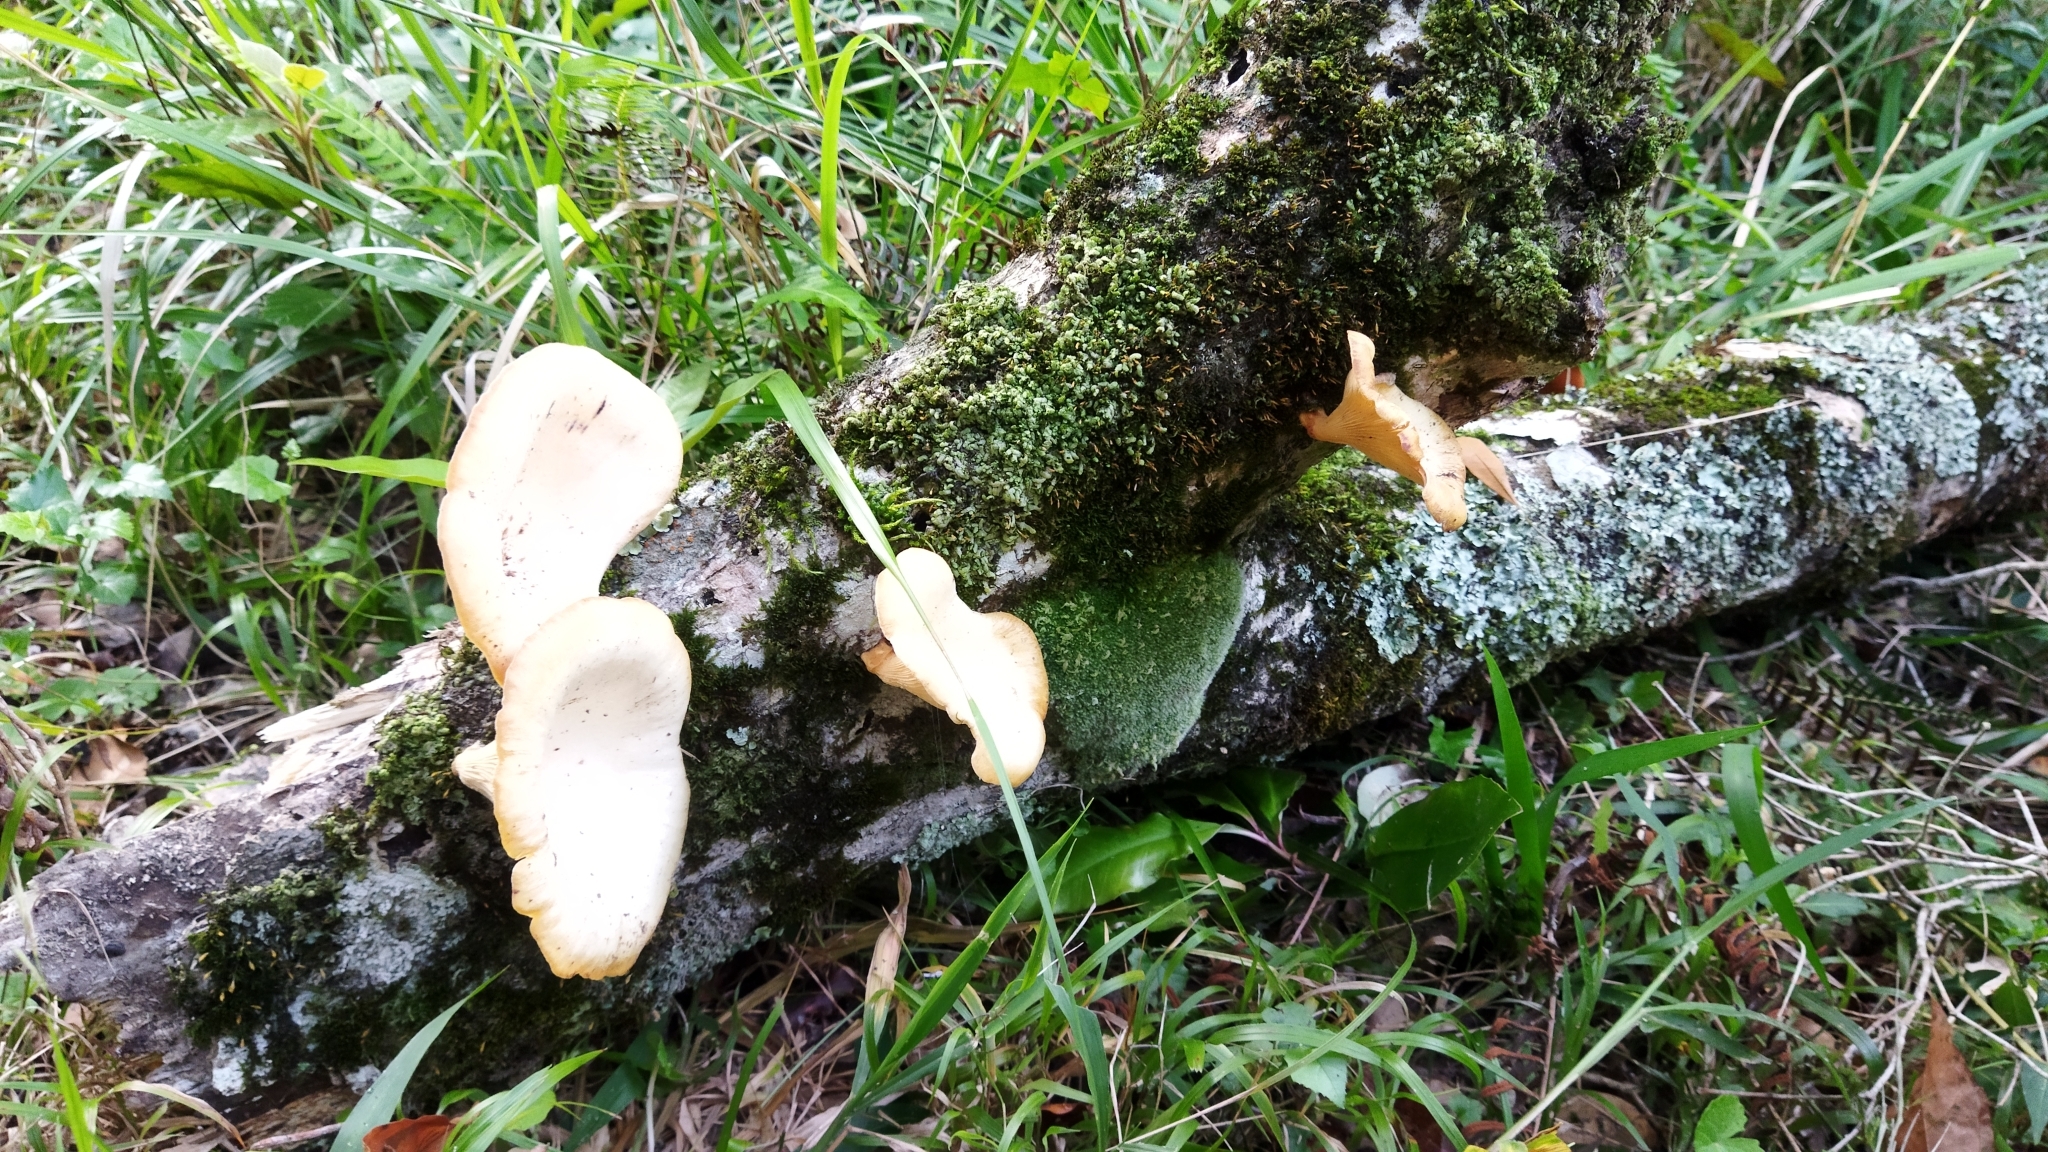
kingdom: Fungi
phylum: Basidiomycota
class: Agaricomycetes
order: Polyporales
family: Polyporaceae
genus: Lentinus
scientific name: Lentinus sajor-caju
